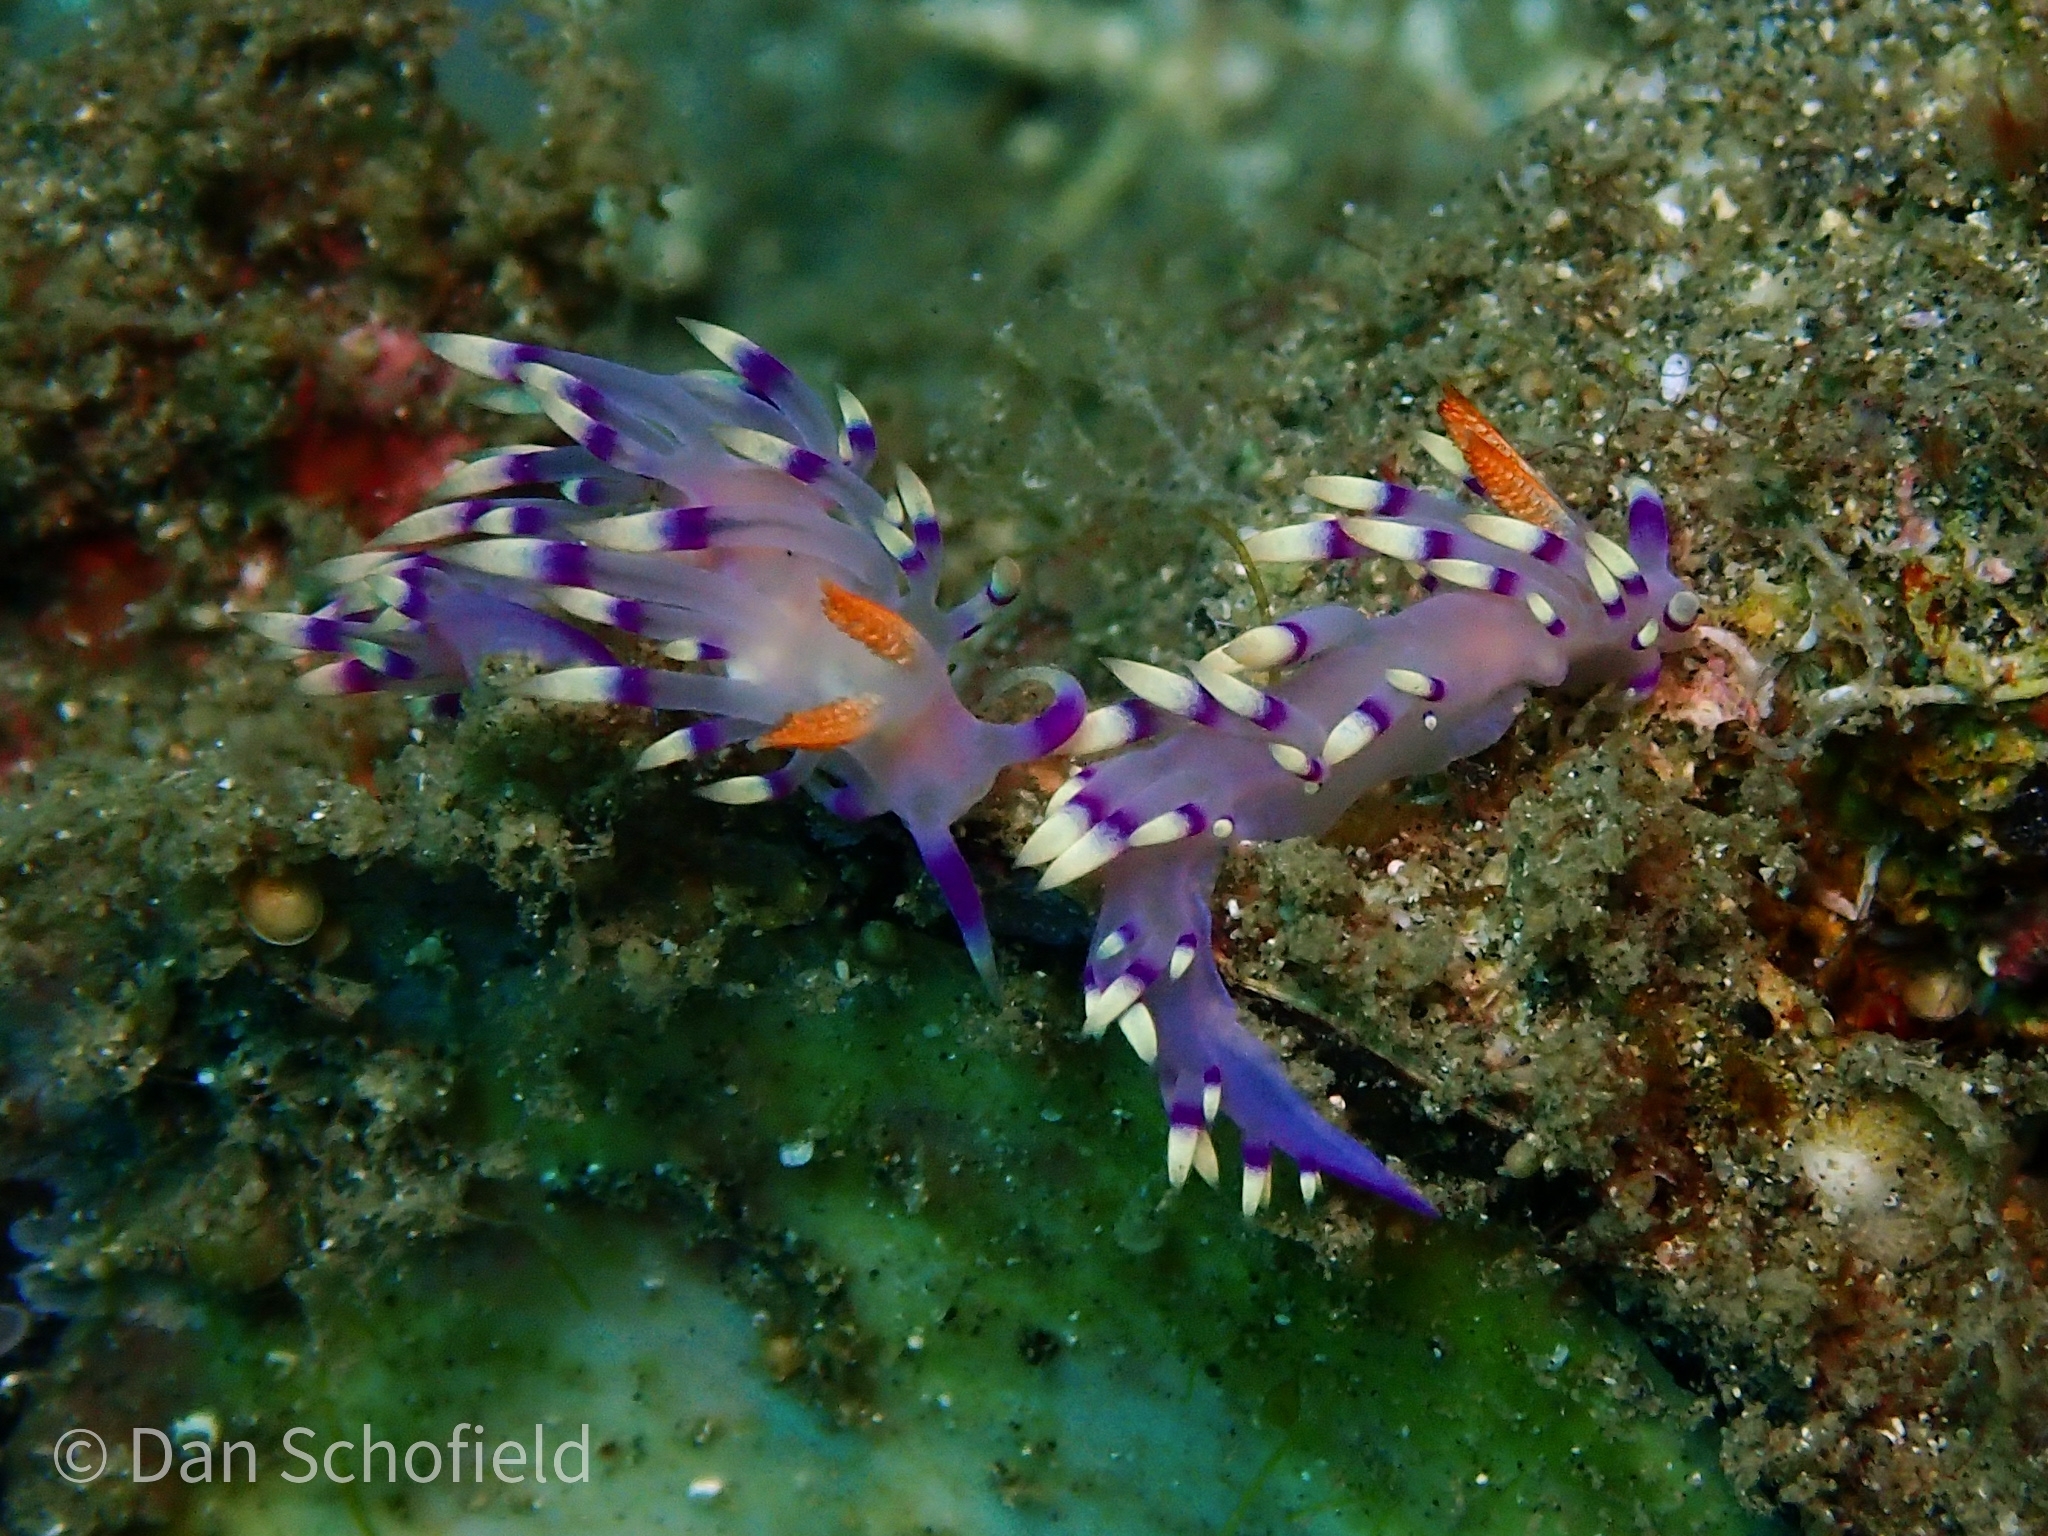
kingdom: Animalia
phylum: Mollusca
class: Gastropoda
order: Nudibranchia
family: Flabellinidae
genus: Coryphellina
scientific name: Coryphellina exoptata
